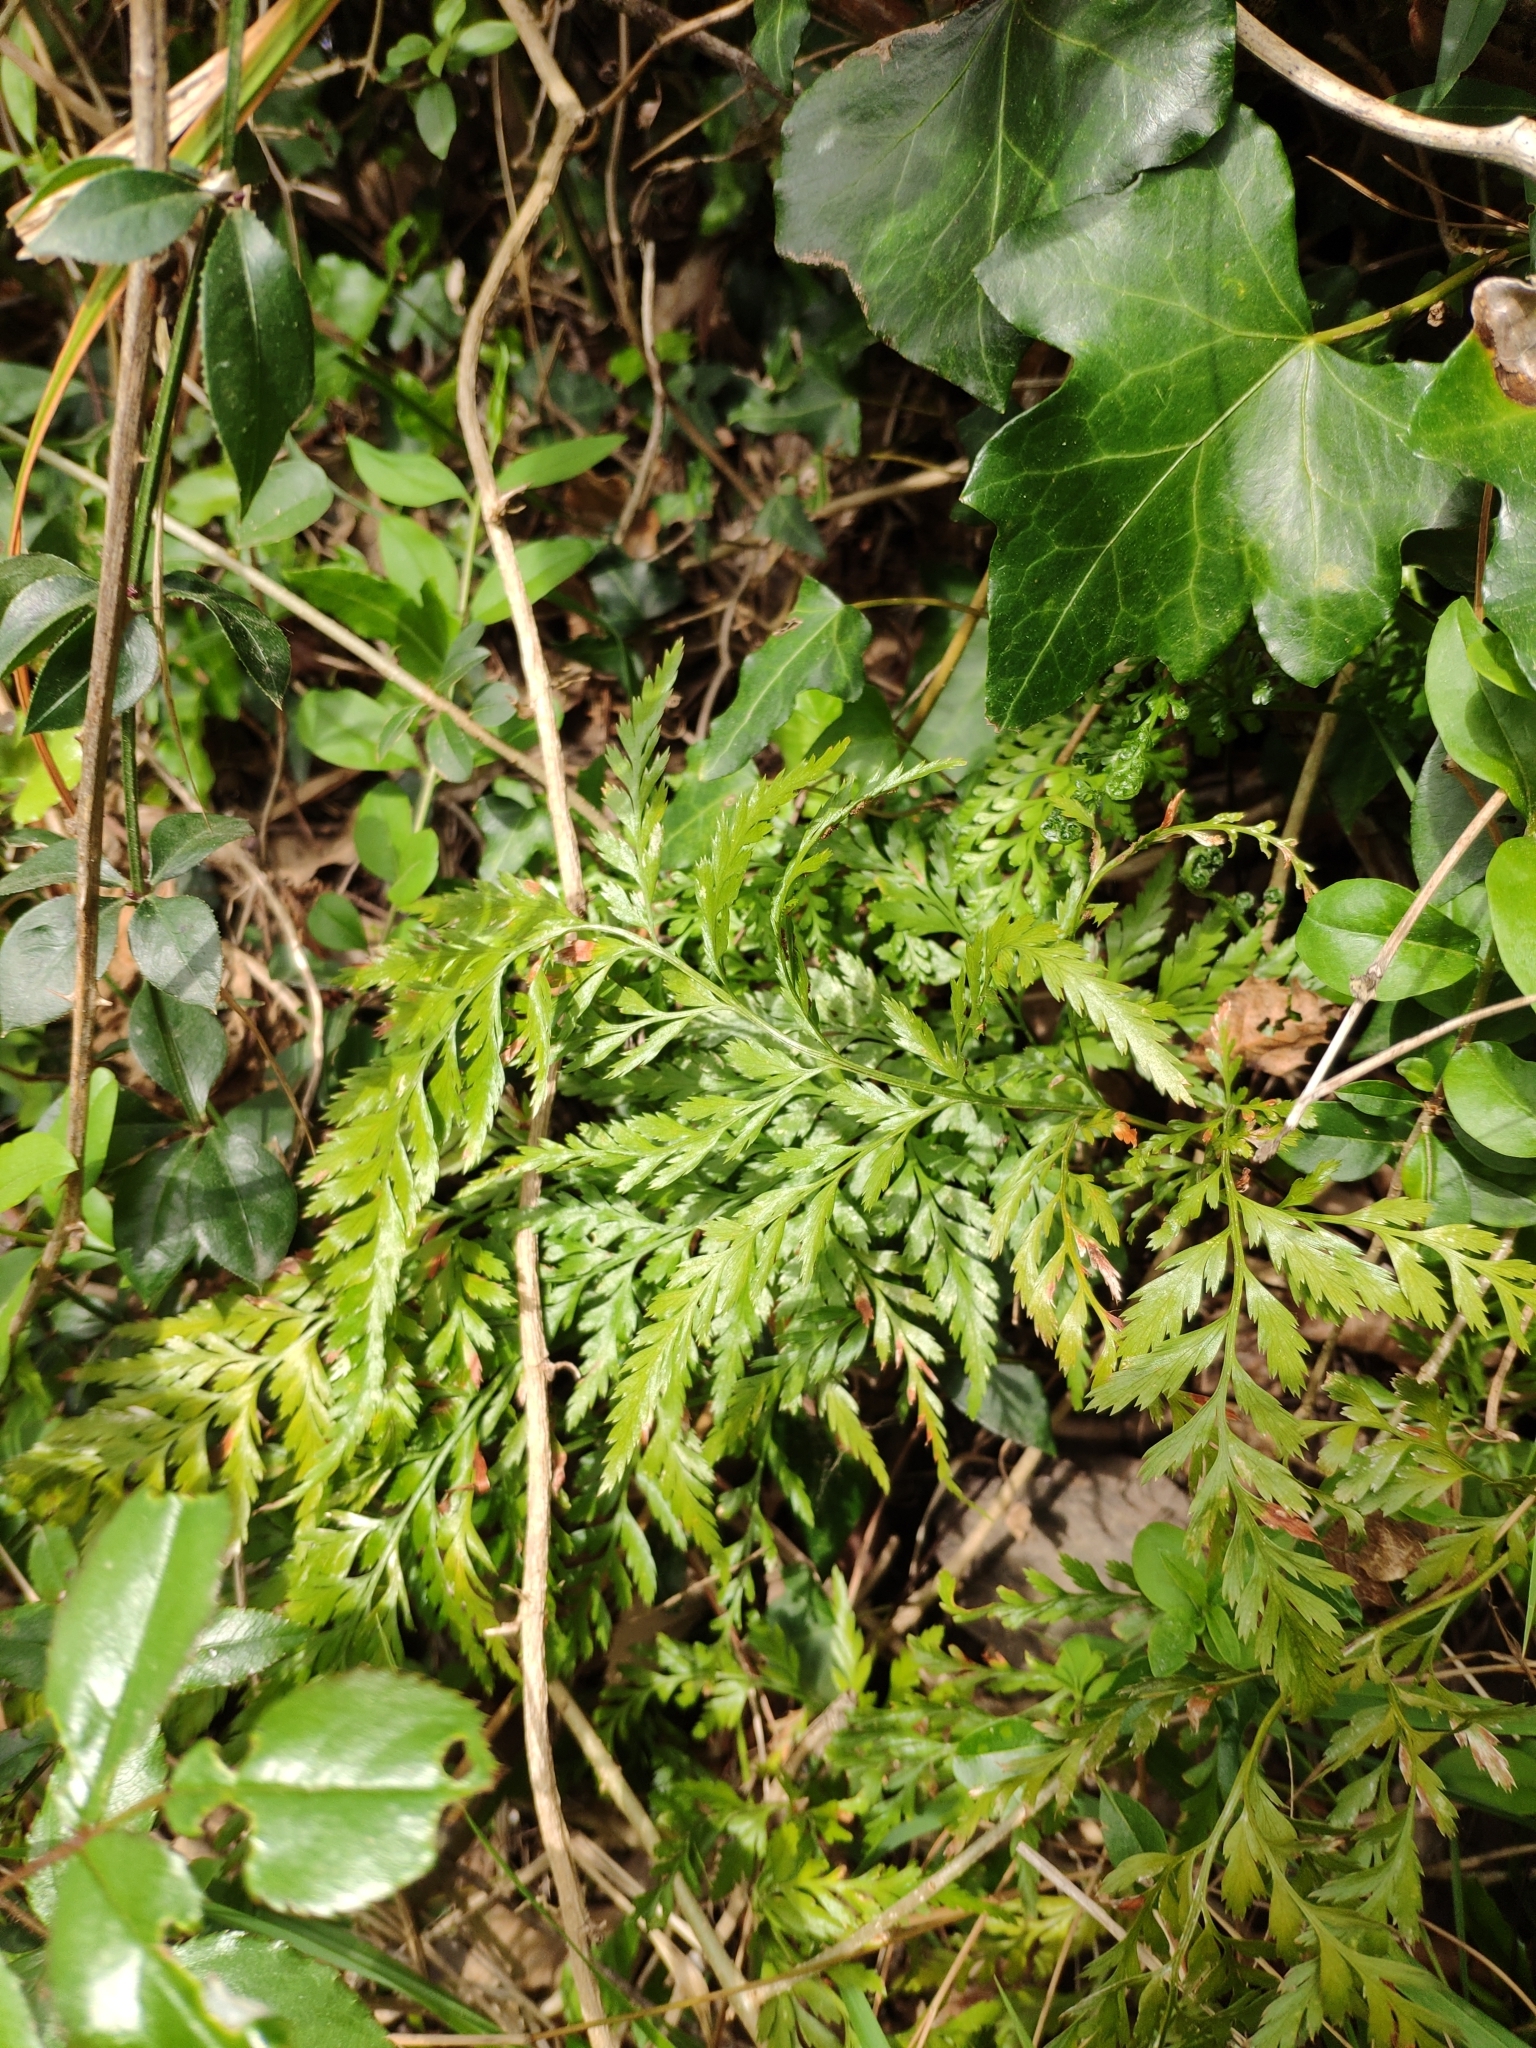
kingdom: Plantae
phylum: Tracheophyta
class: Polypodiopsida
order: Polypodiales
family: Aspleniaceae
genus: Asplenium
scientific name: Asplenium onopteris
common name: Irish spleenwort
